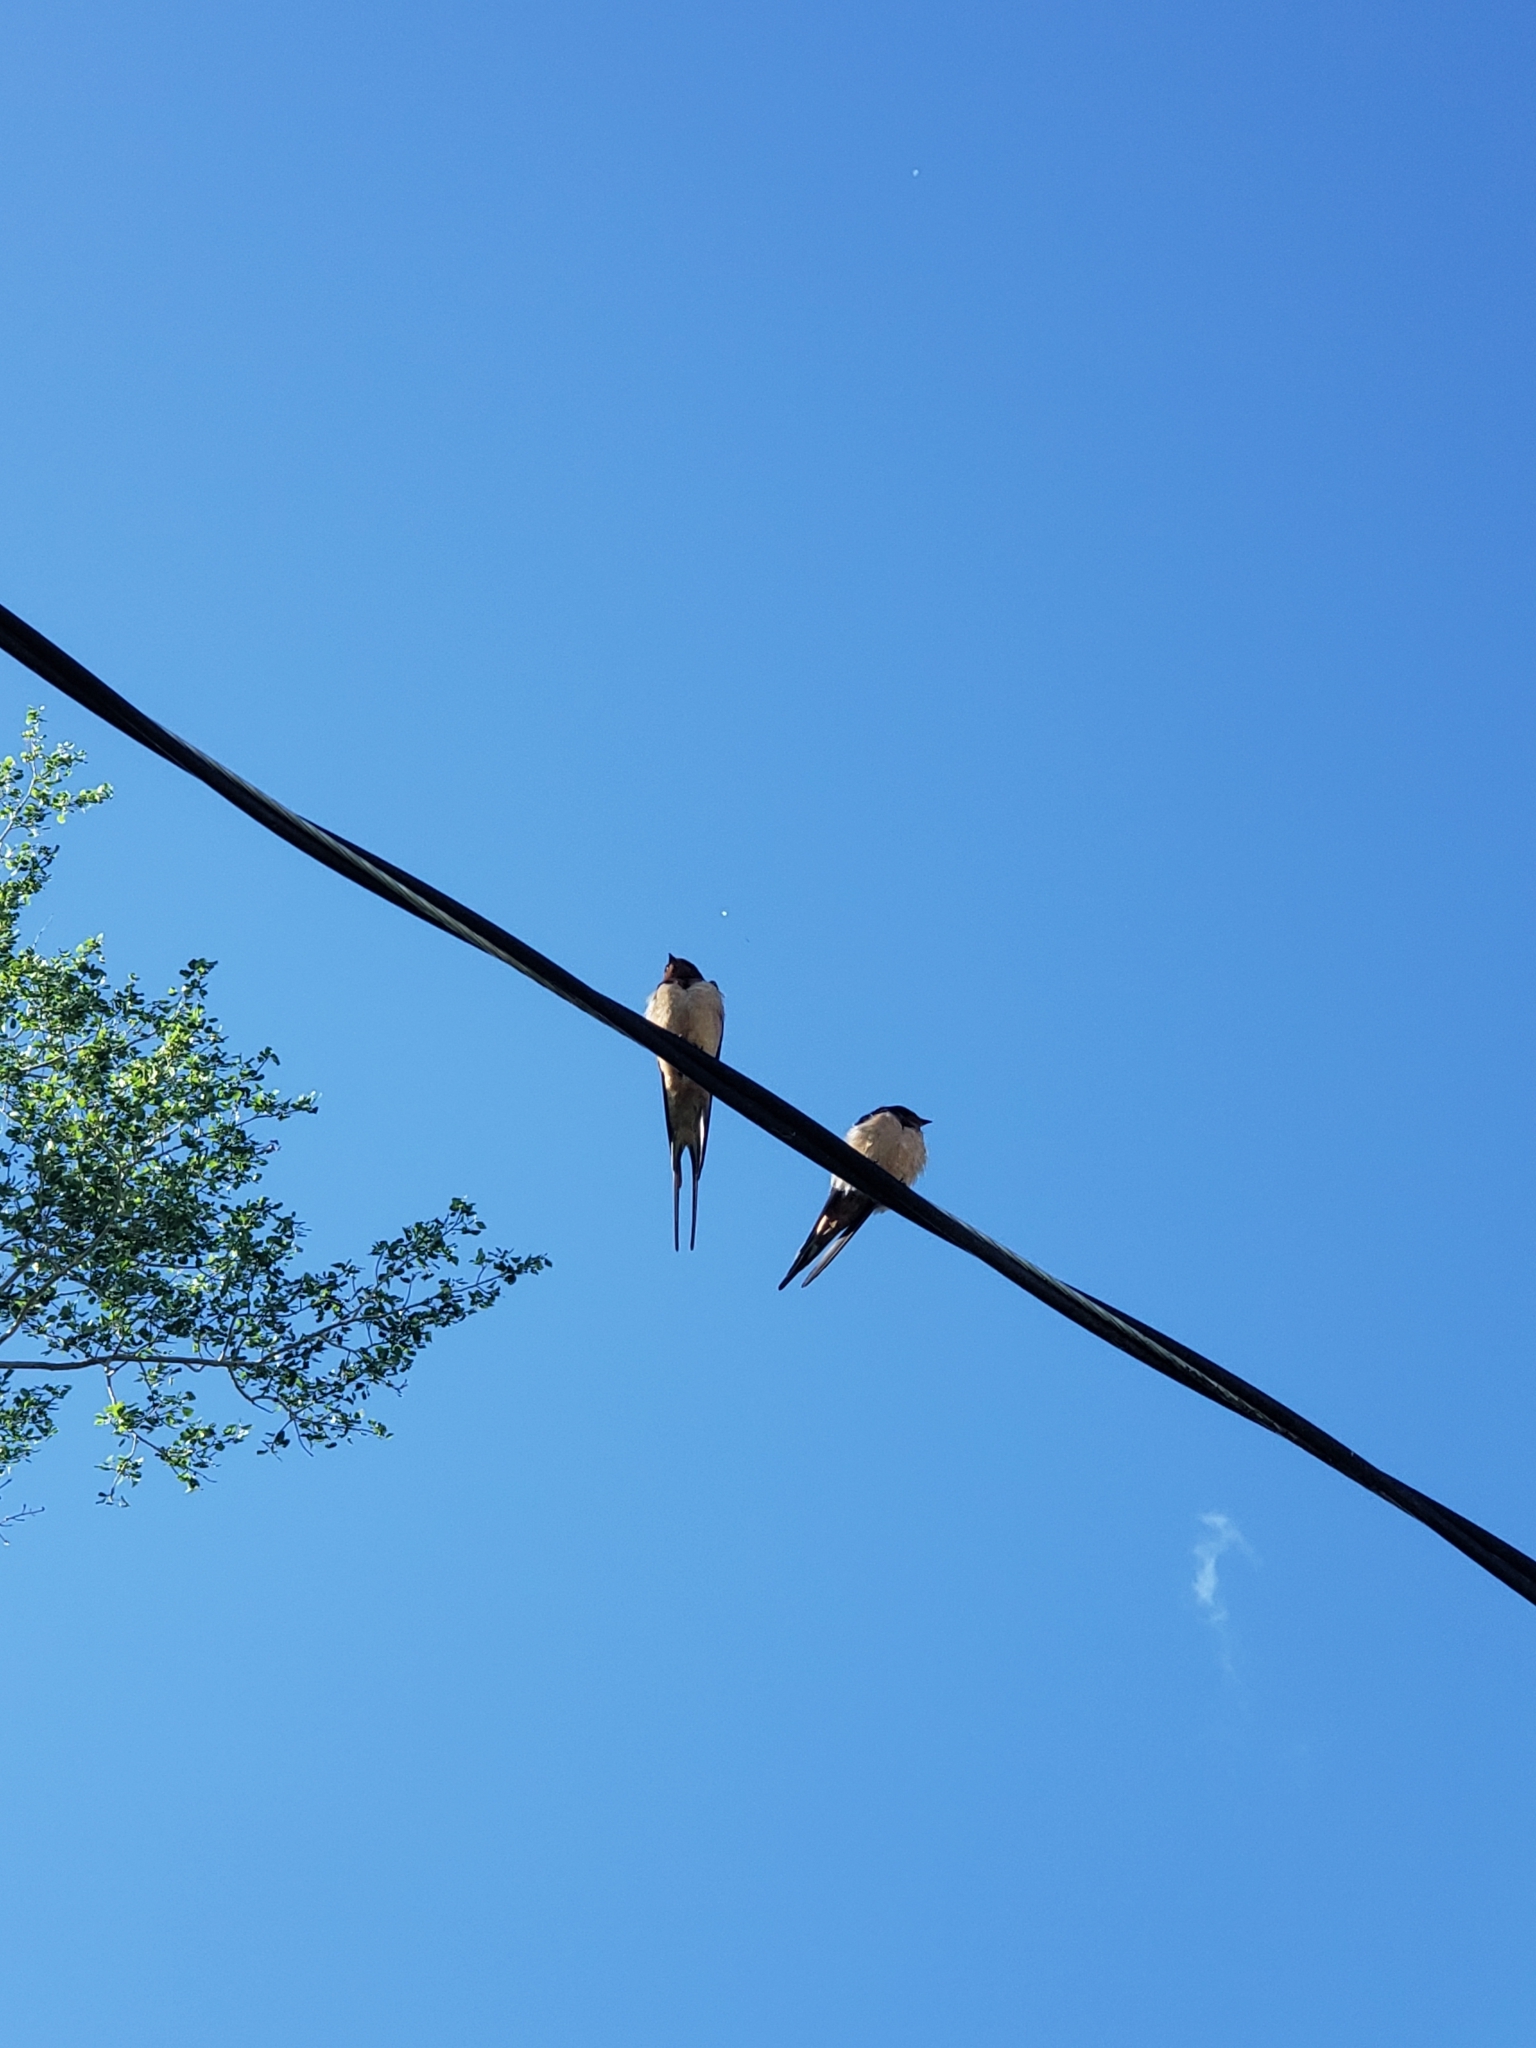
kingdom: Animalia
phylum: Chordata
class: Aves
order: Passeriformes
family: Hirundinidae
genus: Hirundo
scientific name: Hirundo rustica
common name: Barn swallow
